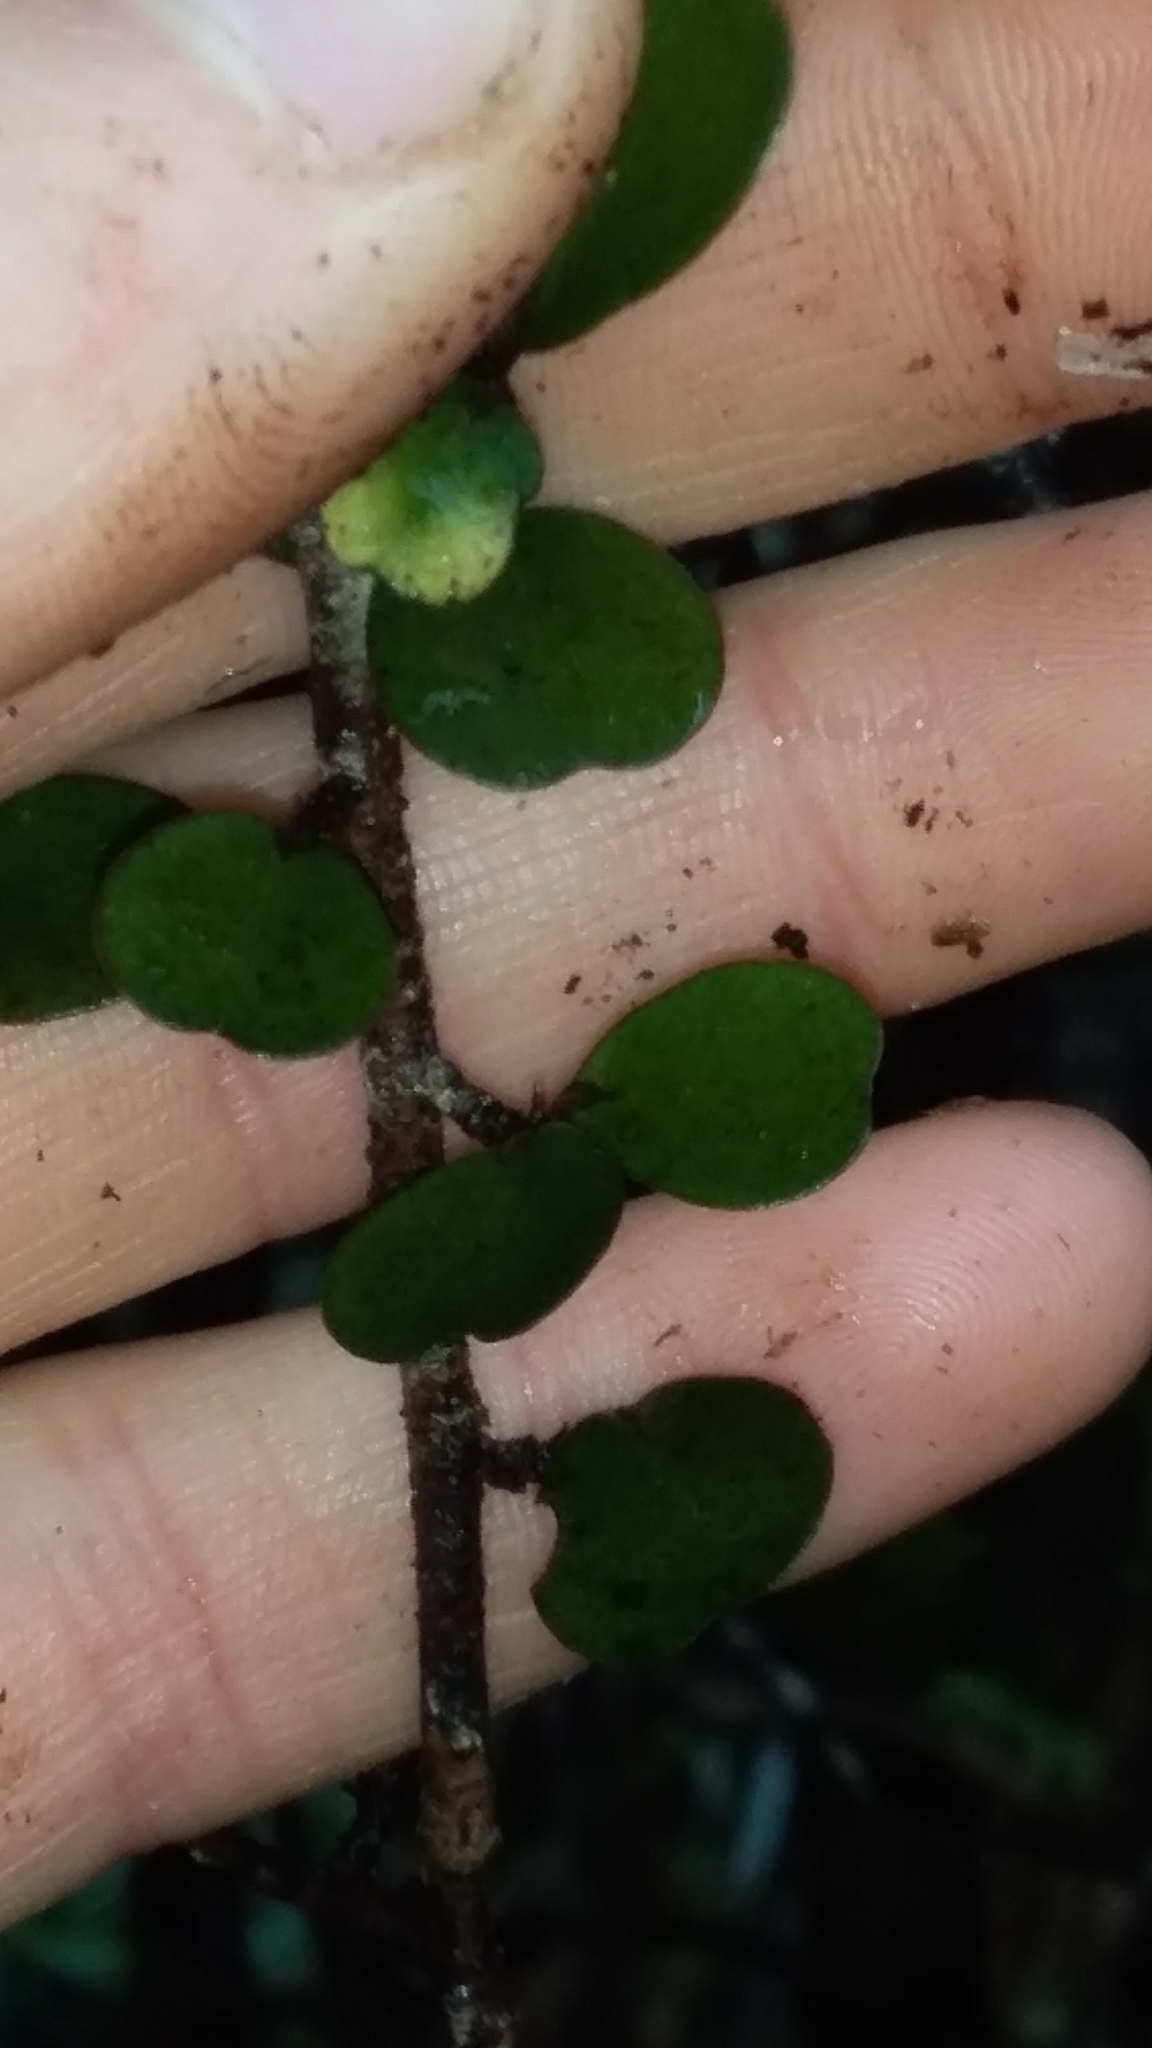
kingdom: Plantae
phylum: Tracheophyta
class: Magnoliopsida
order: Ericales
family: Primulaceae
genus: Myrsine
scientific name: Myrsine divaricata
